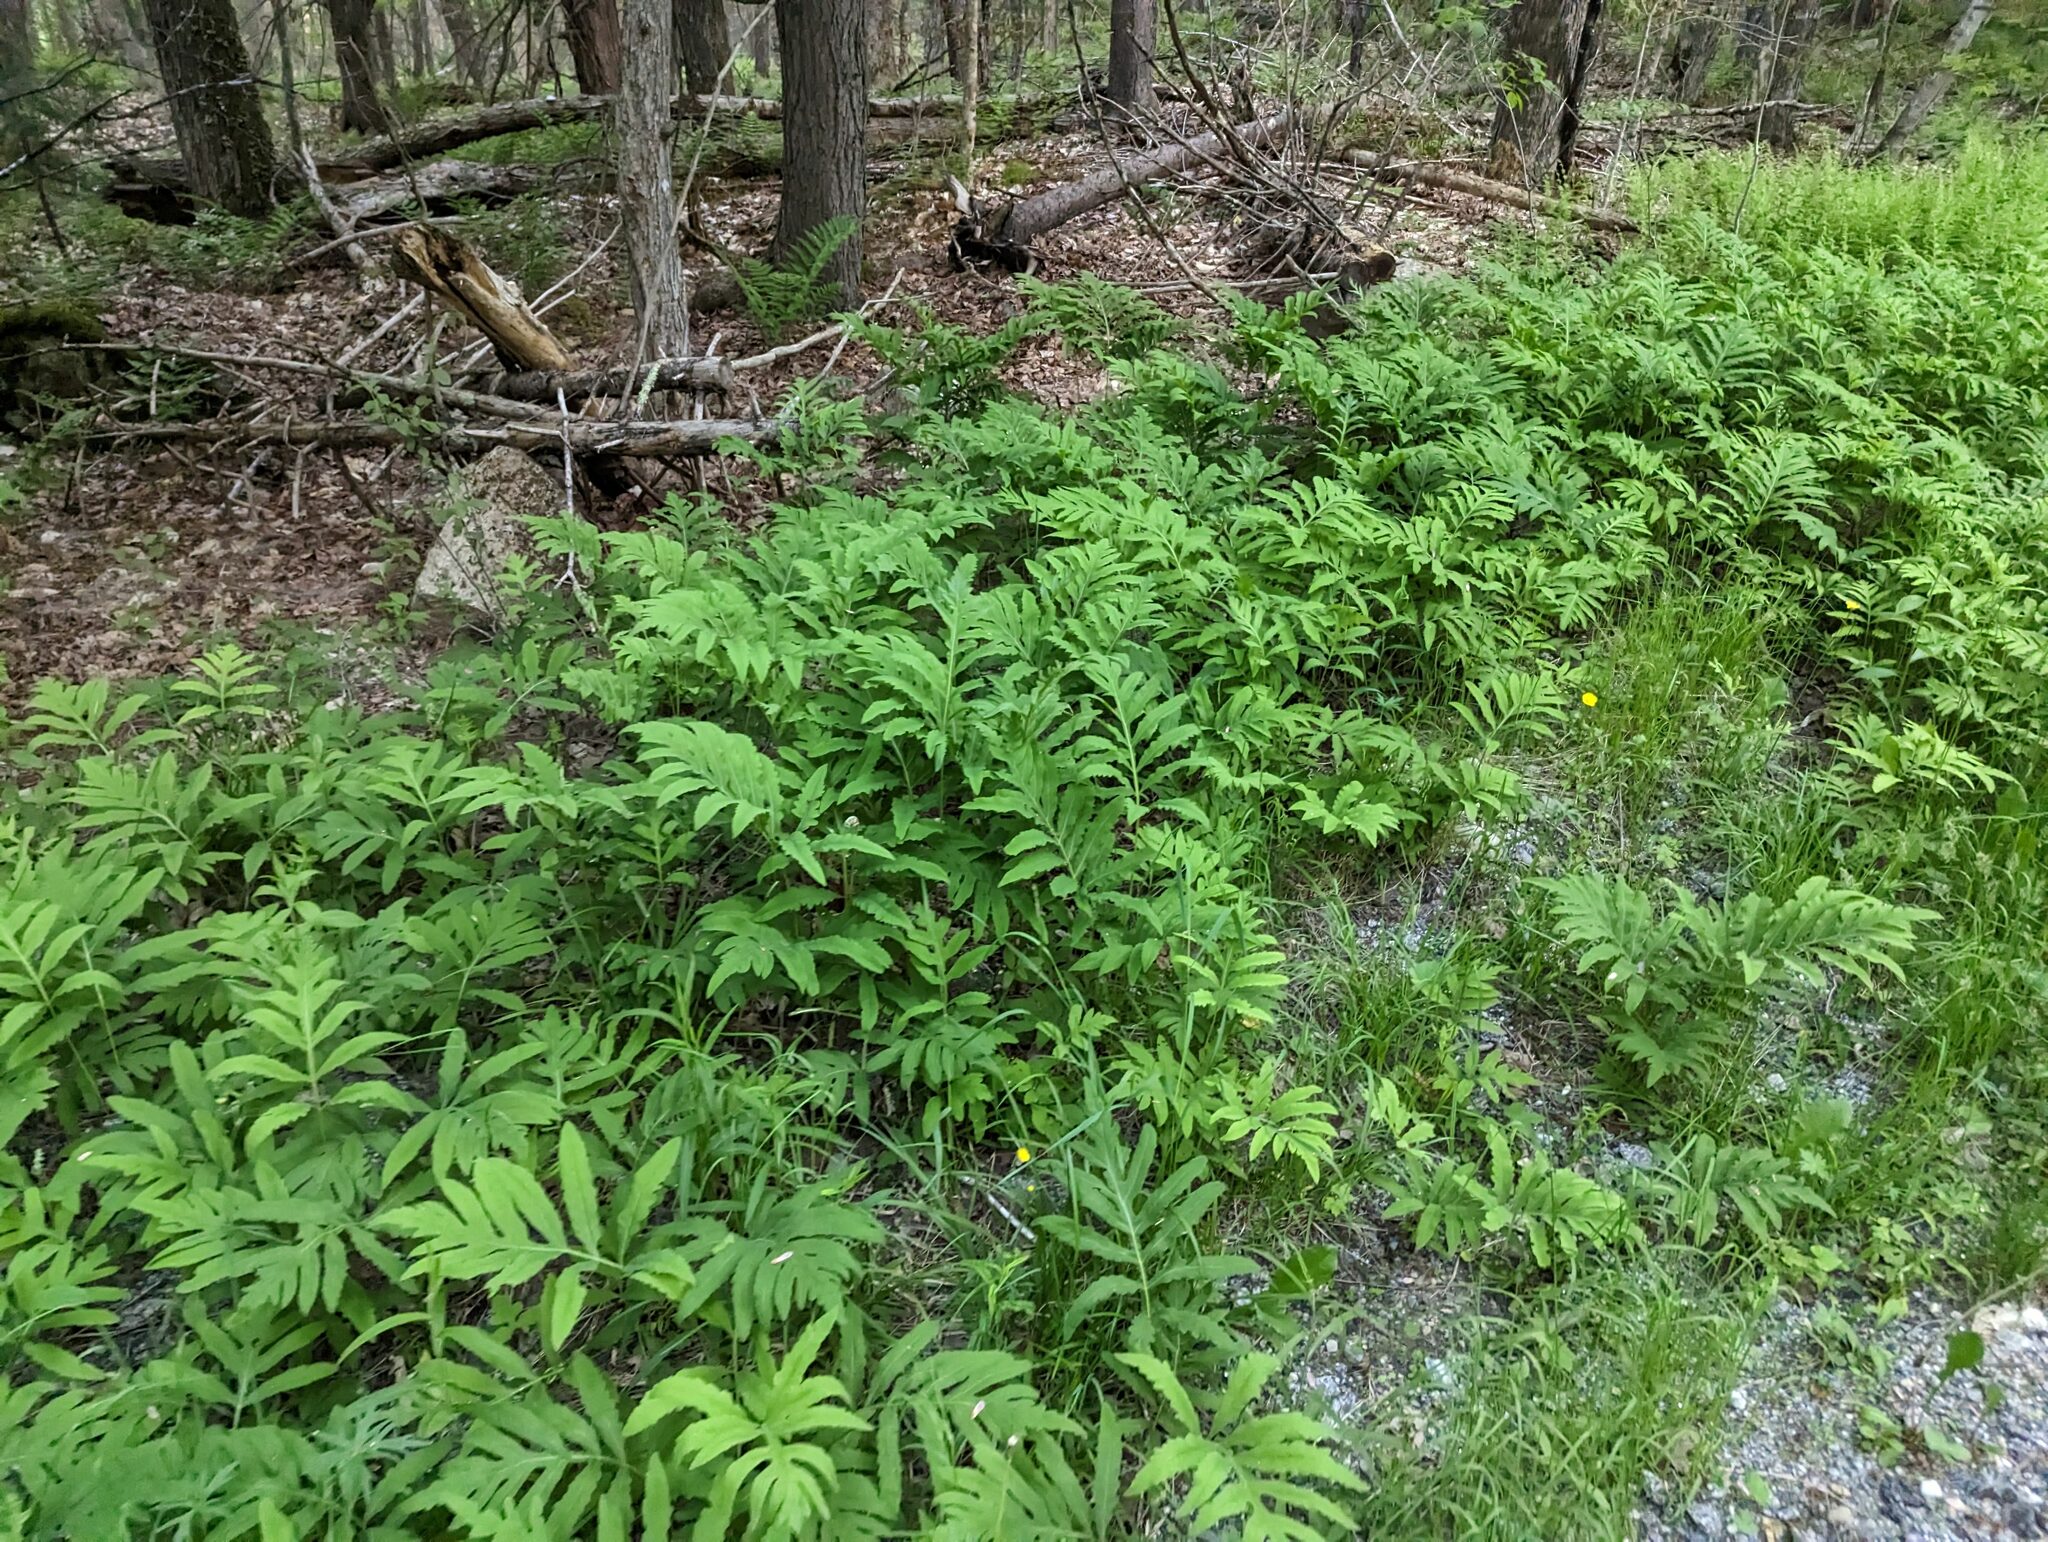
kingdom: Plantae
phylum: Tracheophyta
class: Polypodiopsida
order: Polypodiales
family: Onocleaceae
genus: Onoclea
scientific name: Onoclea sensibilis
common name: Sensitive fern
